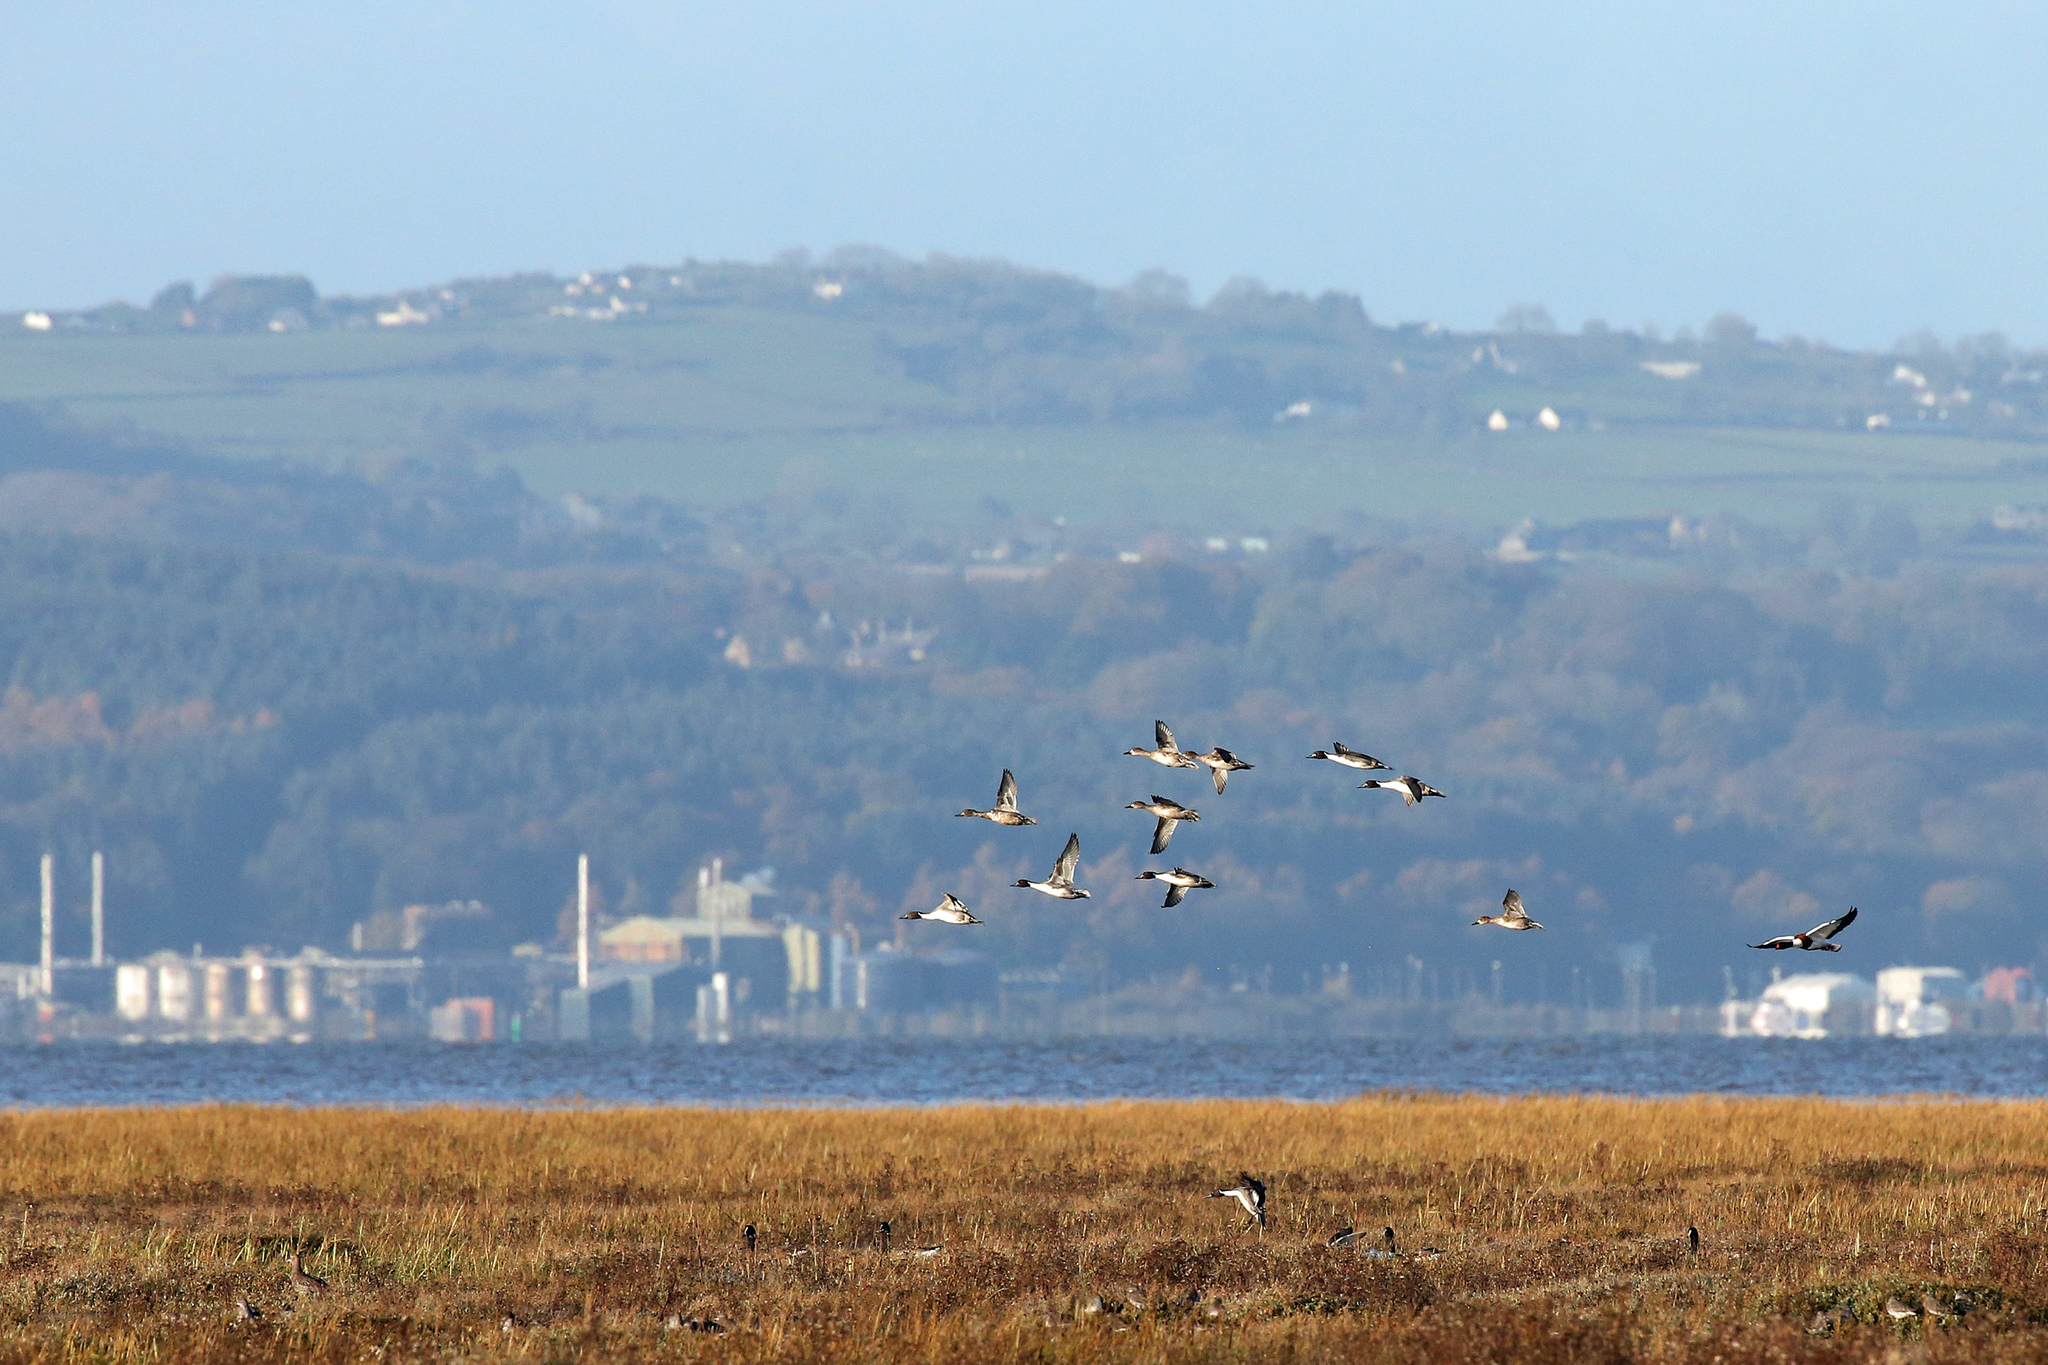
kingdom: Animalia
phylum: Chordata
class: Aves
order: Anseriformes
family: Anatidae
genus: Anas
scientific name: Anas acuta
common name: Northern pintail
